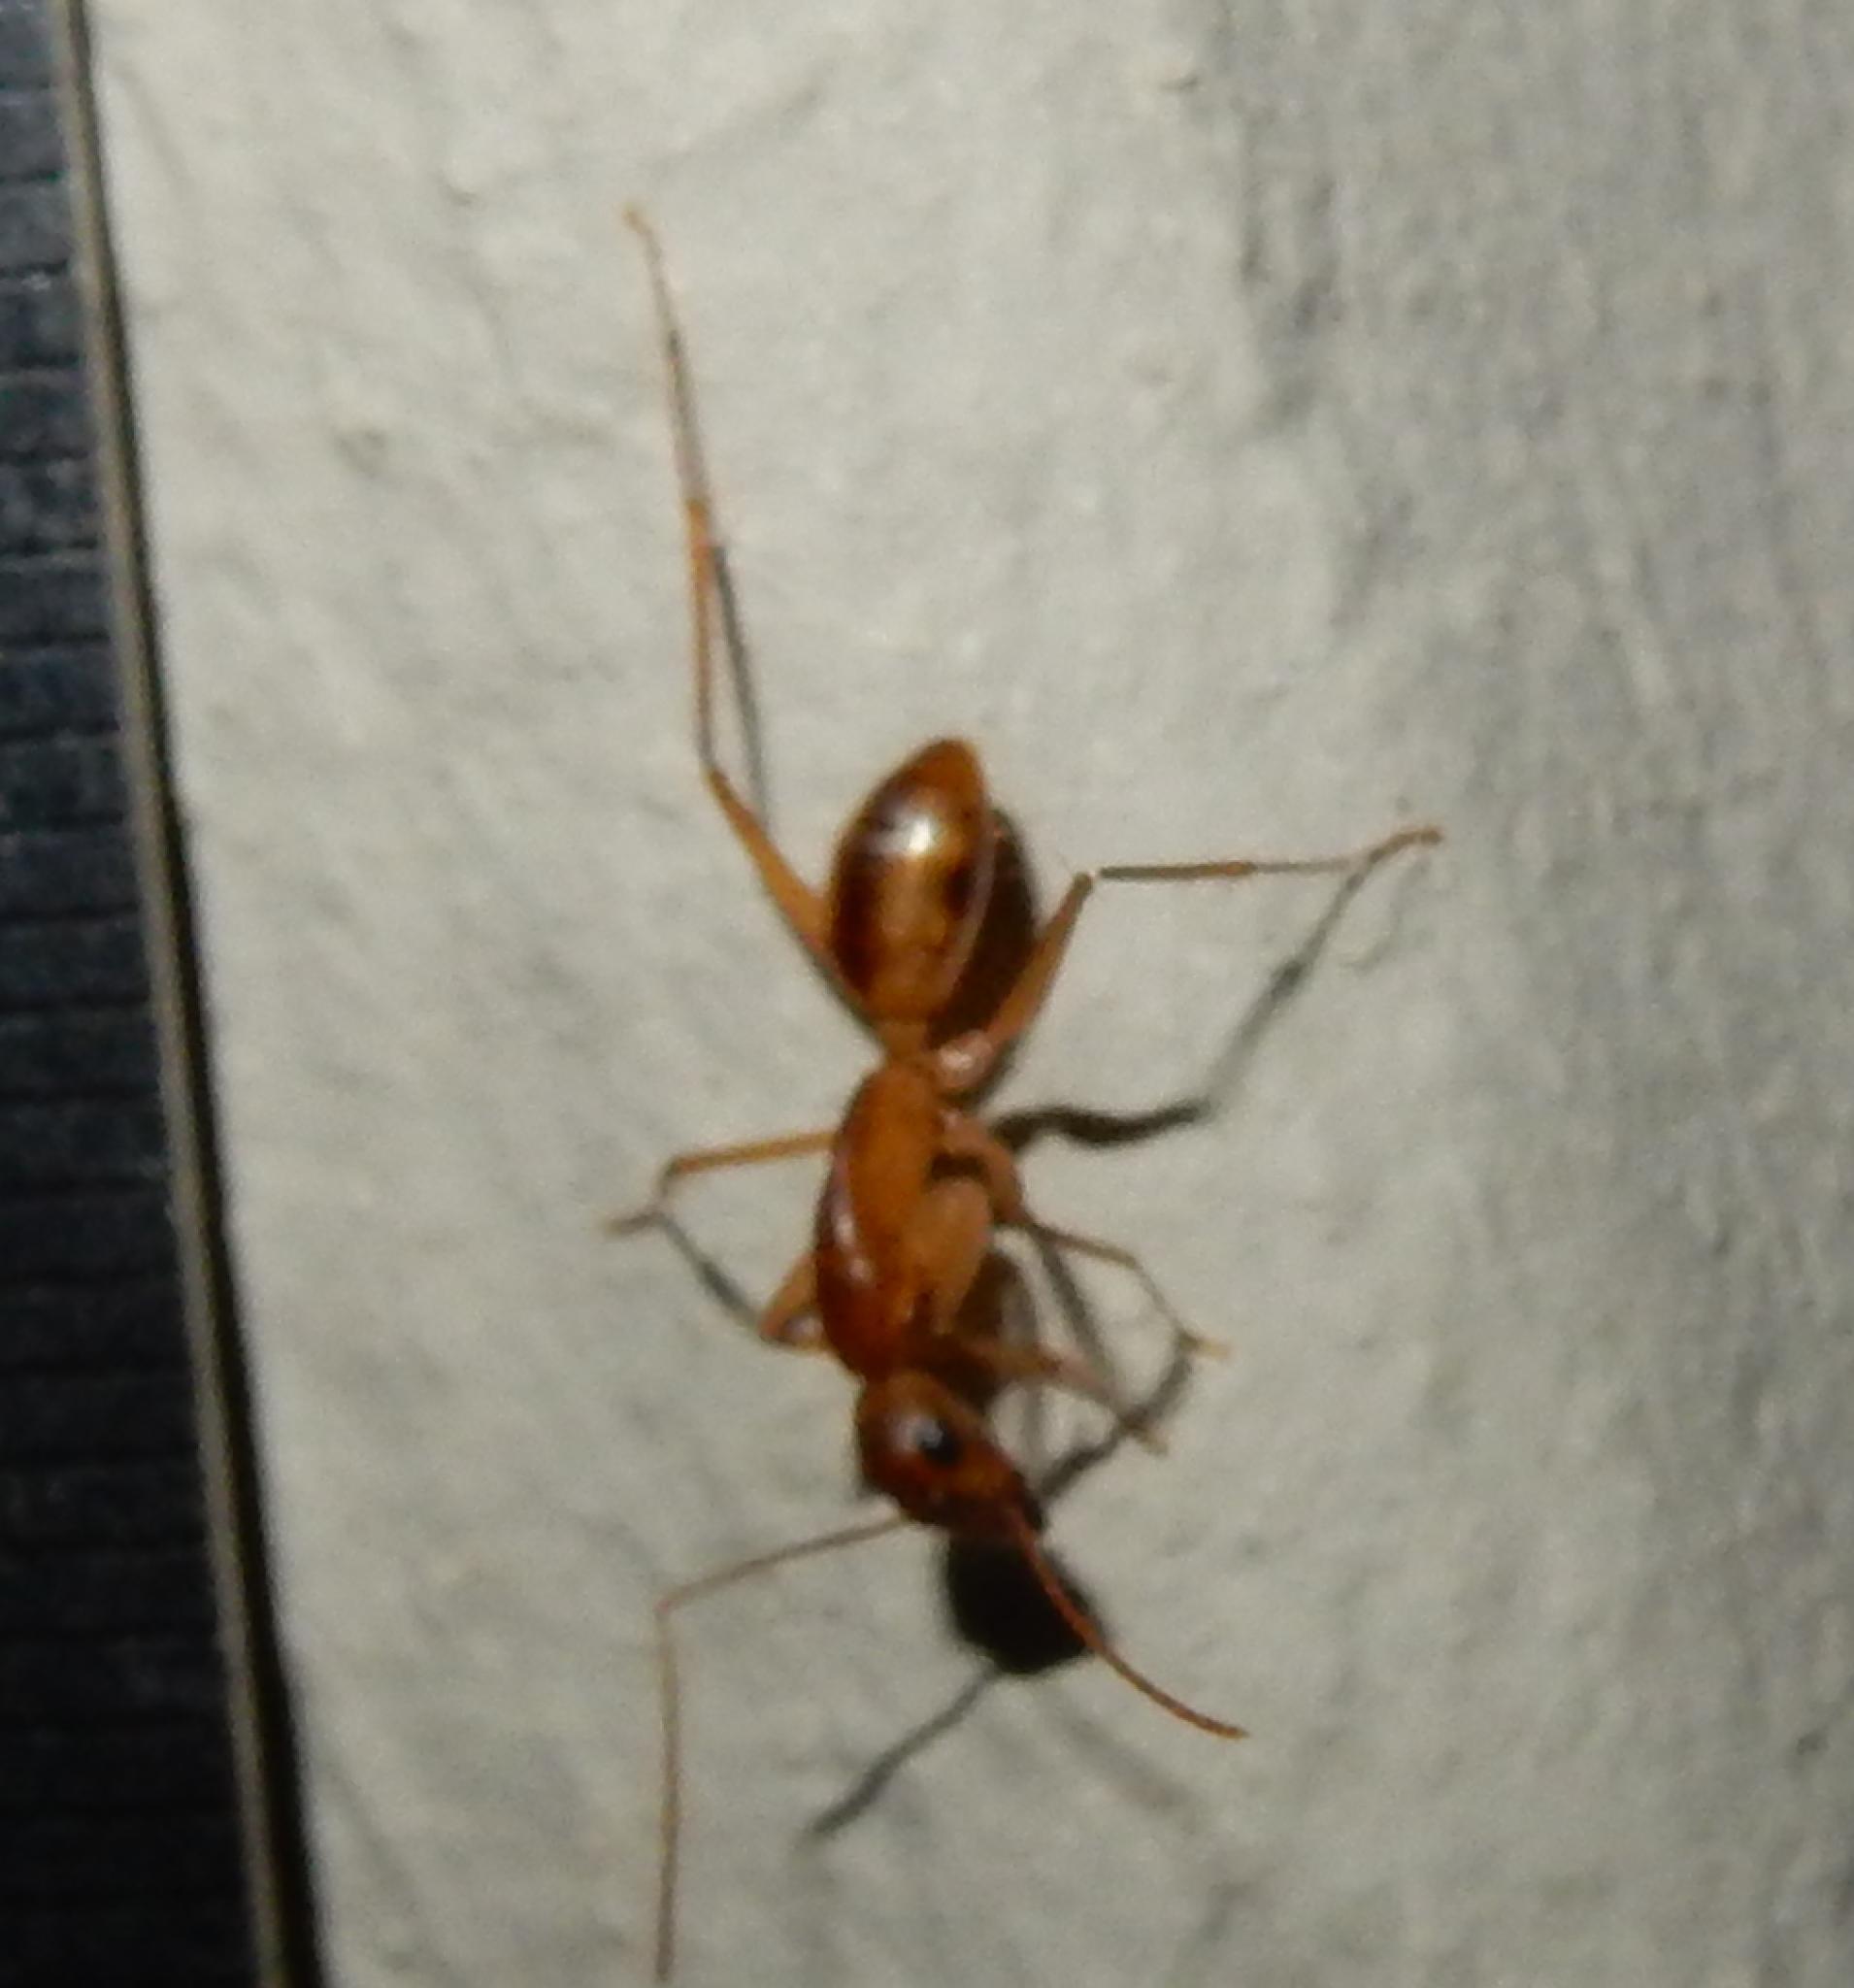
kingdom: Animalia
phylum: Arthropoda
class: Insecta
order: Hymenoptera
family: Formicidae
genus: Camponotus
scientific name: Camponotus hova
